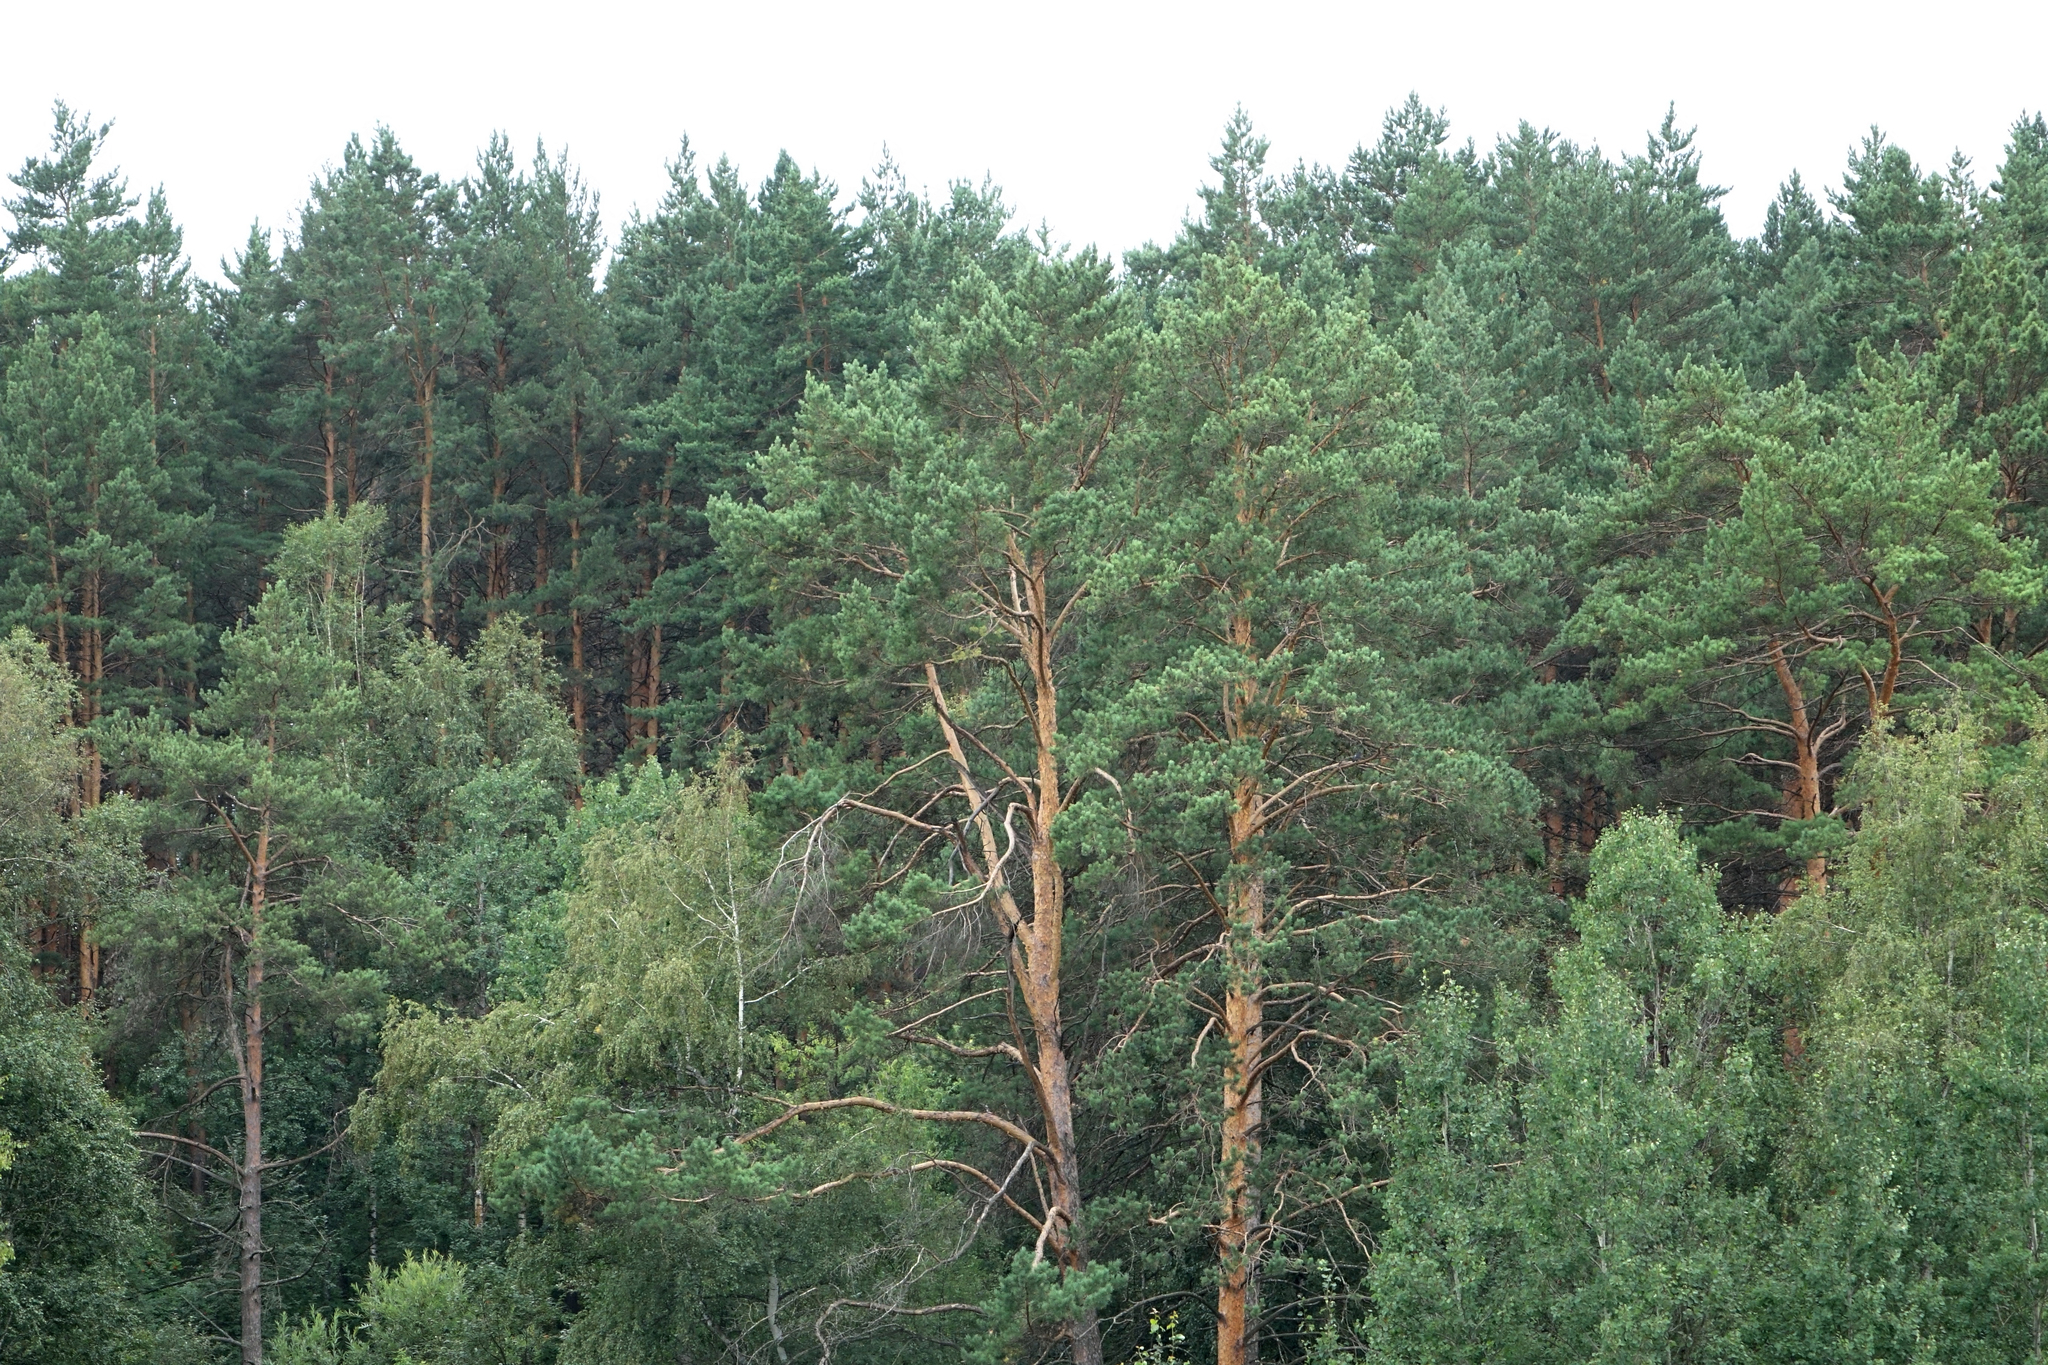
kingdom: Plantae
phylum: Tracheophyta
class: Pinopsida
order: Pinales
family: Pinaceae
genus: Pinus
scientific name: Pinus sylvestris
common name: Scots pine
